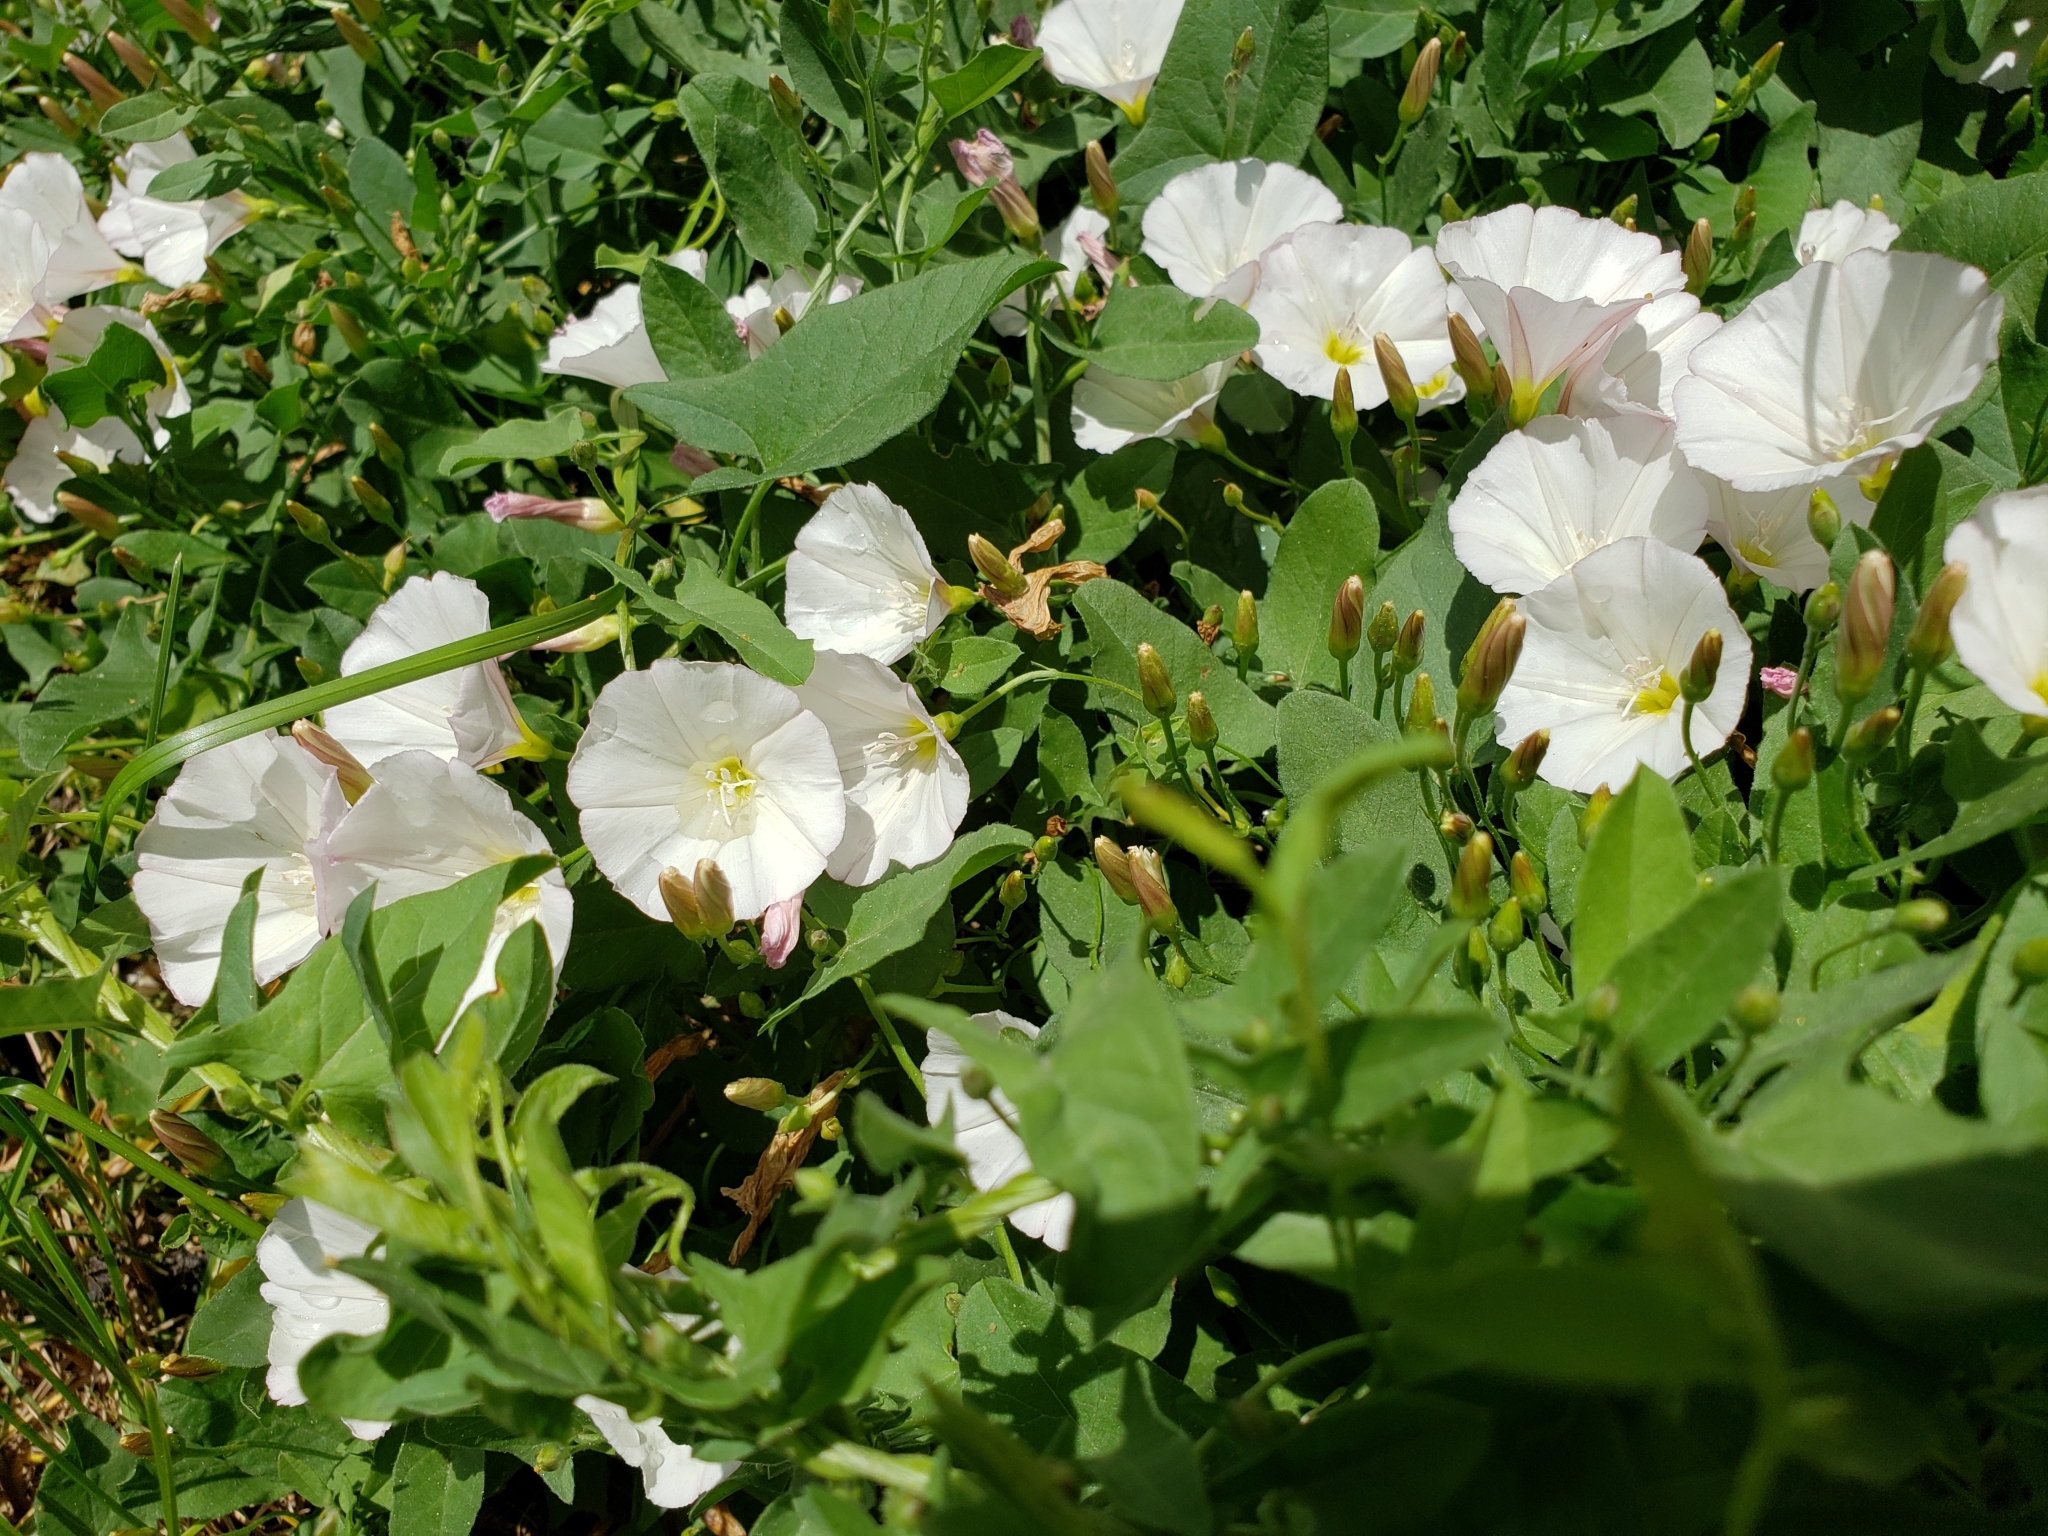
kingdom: Plantae
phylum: Tracheophyta
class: Magnoliopsida
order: Solanales
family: Convolvulaceae
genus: Convolvulus
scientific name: Convolvulus arvensis
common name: Field bindweed
